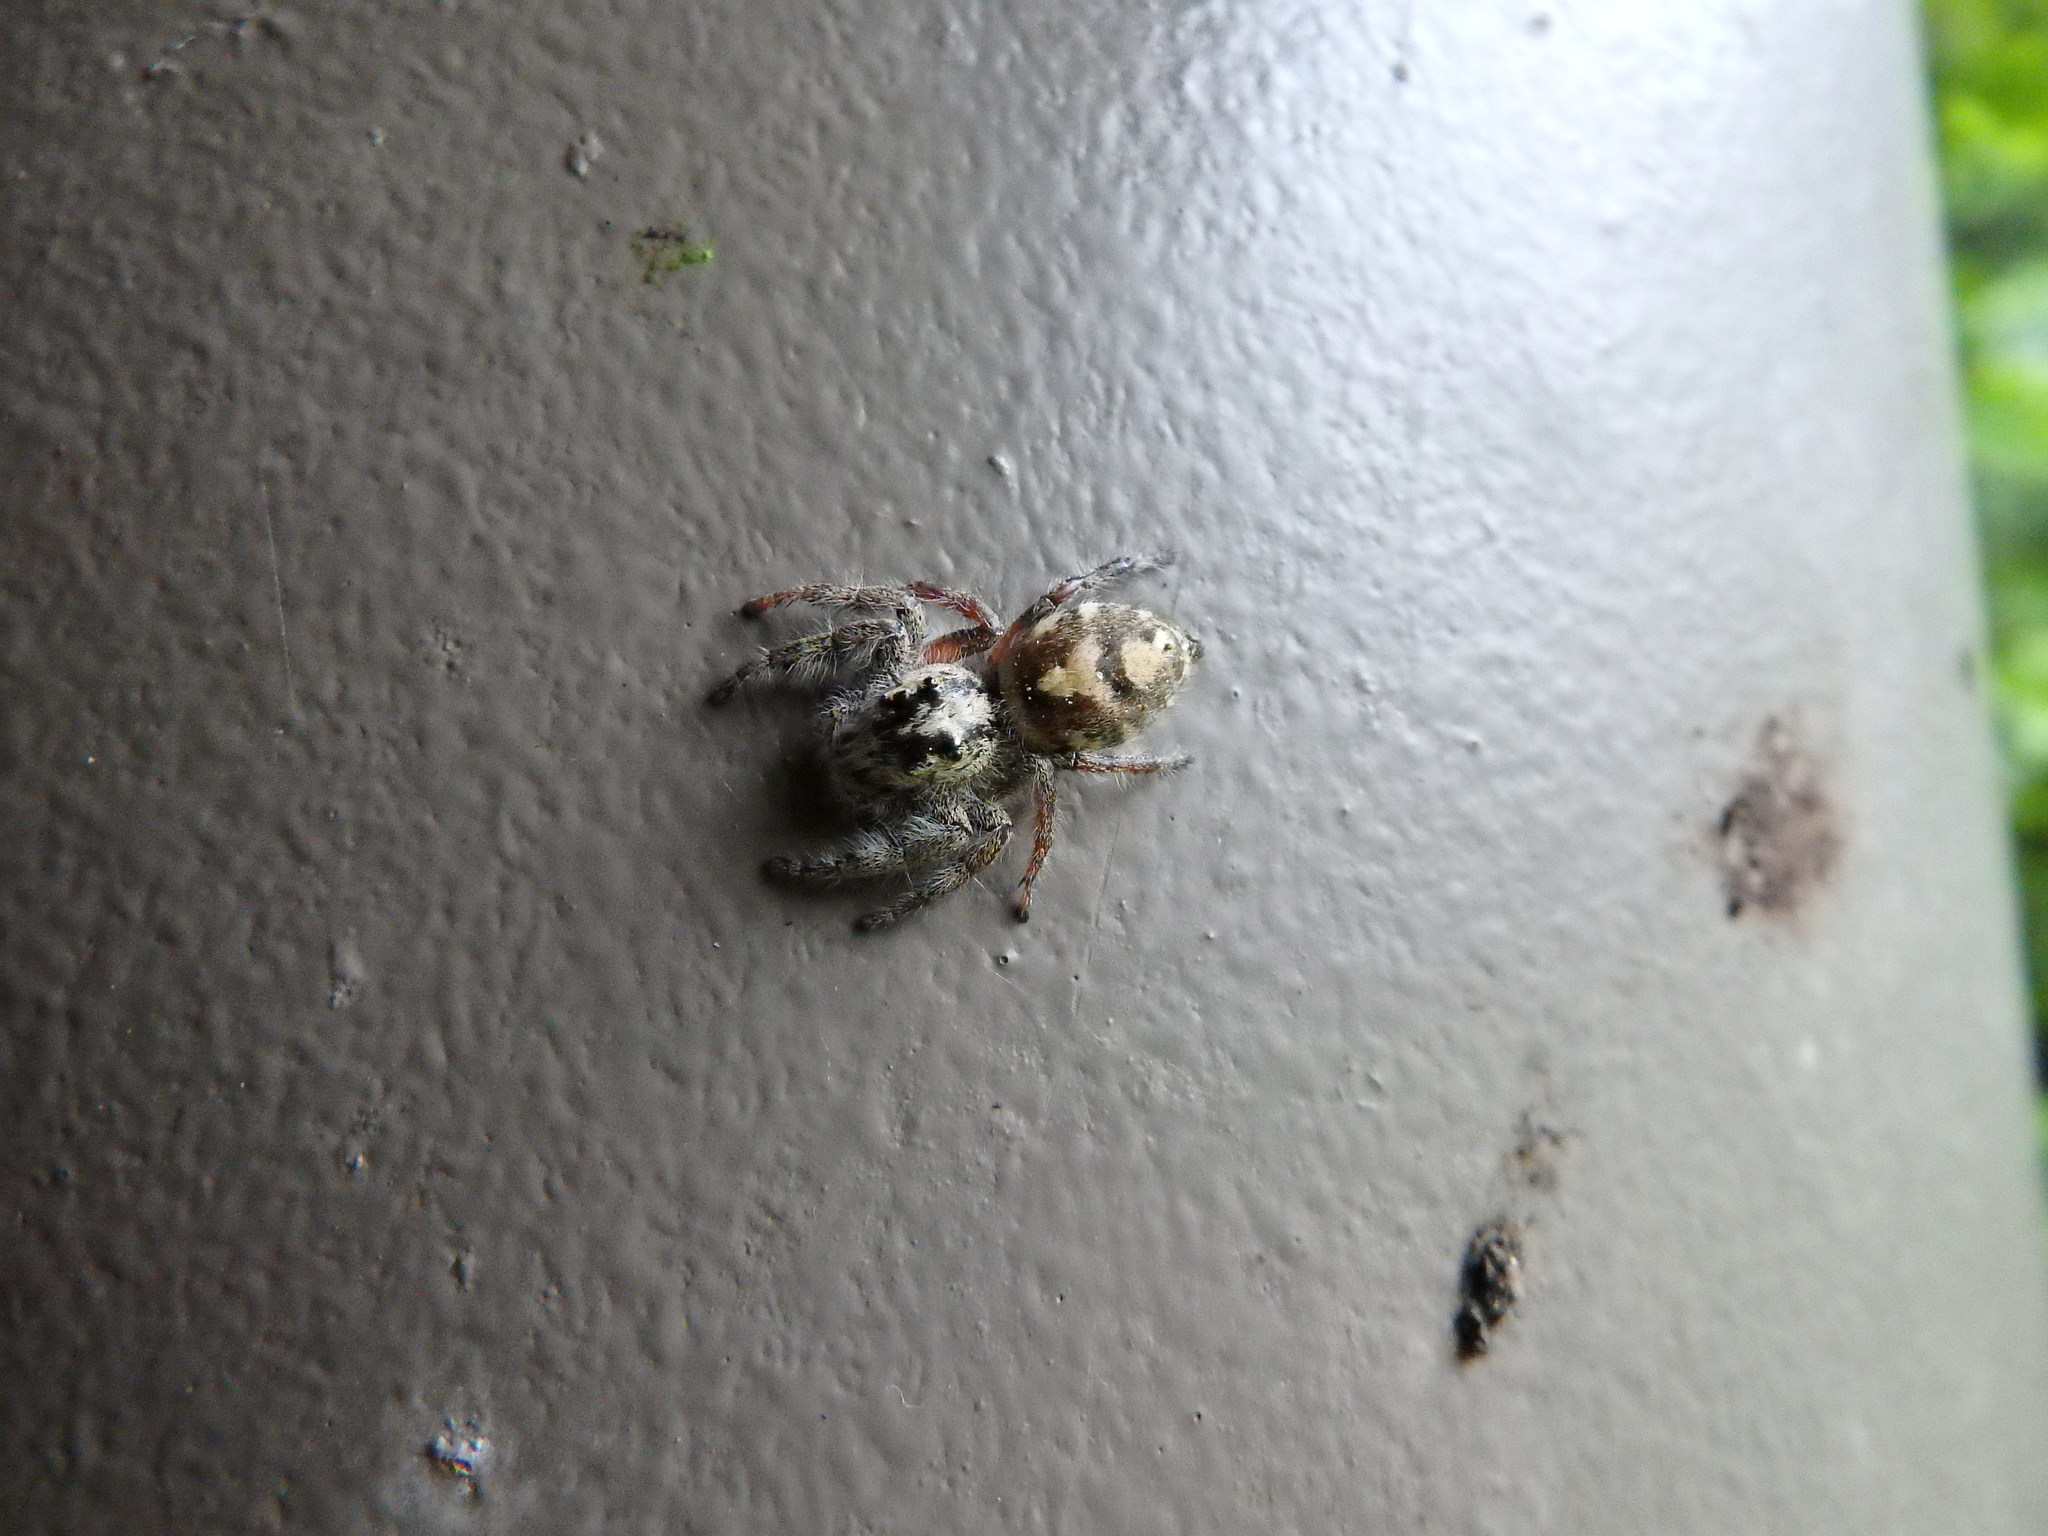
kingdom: Animalia
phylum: Arthropoda
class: Arachnida
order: Araneae
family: Salticidae
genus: Hyllus
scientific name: Hyllus diardi
